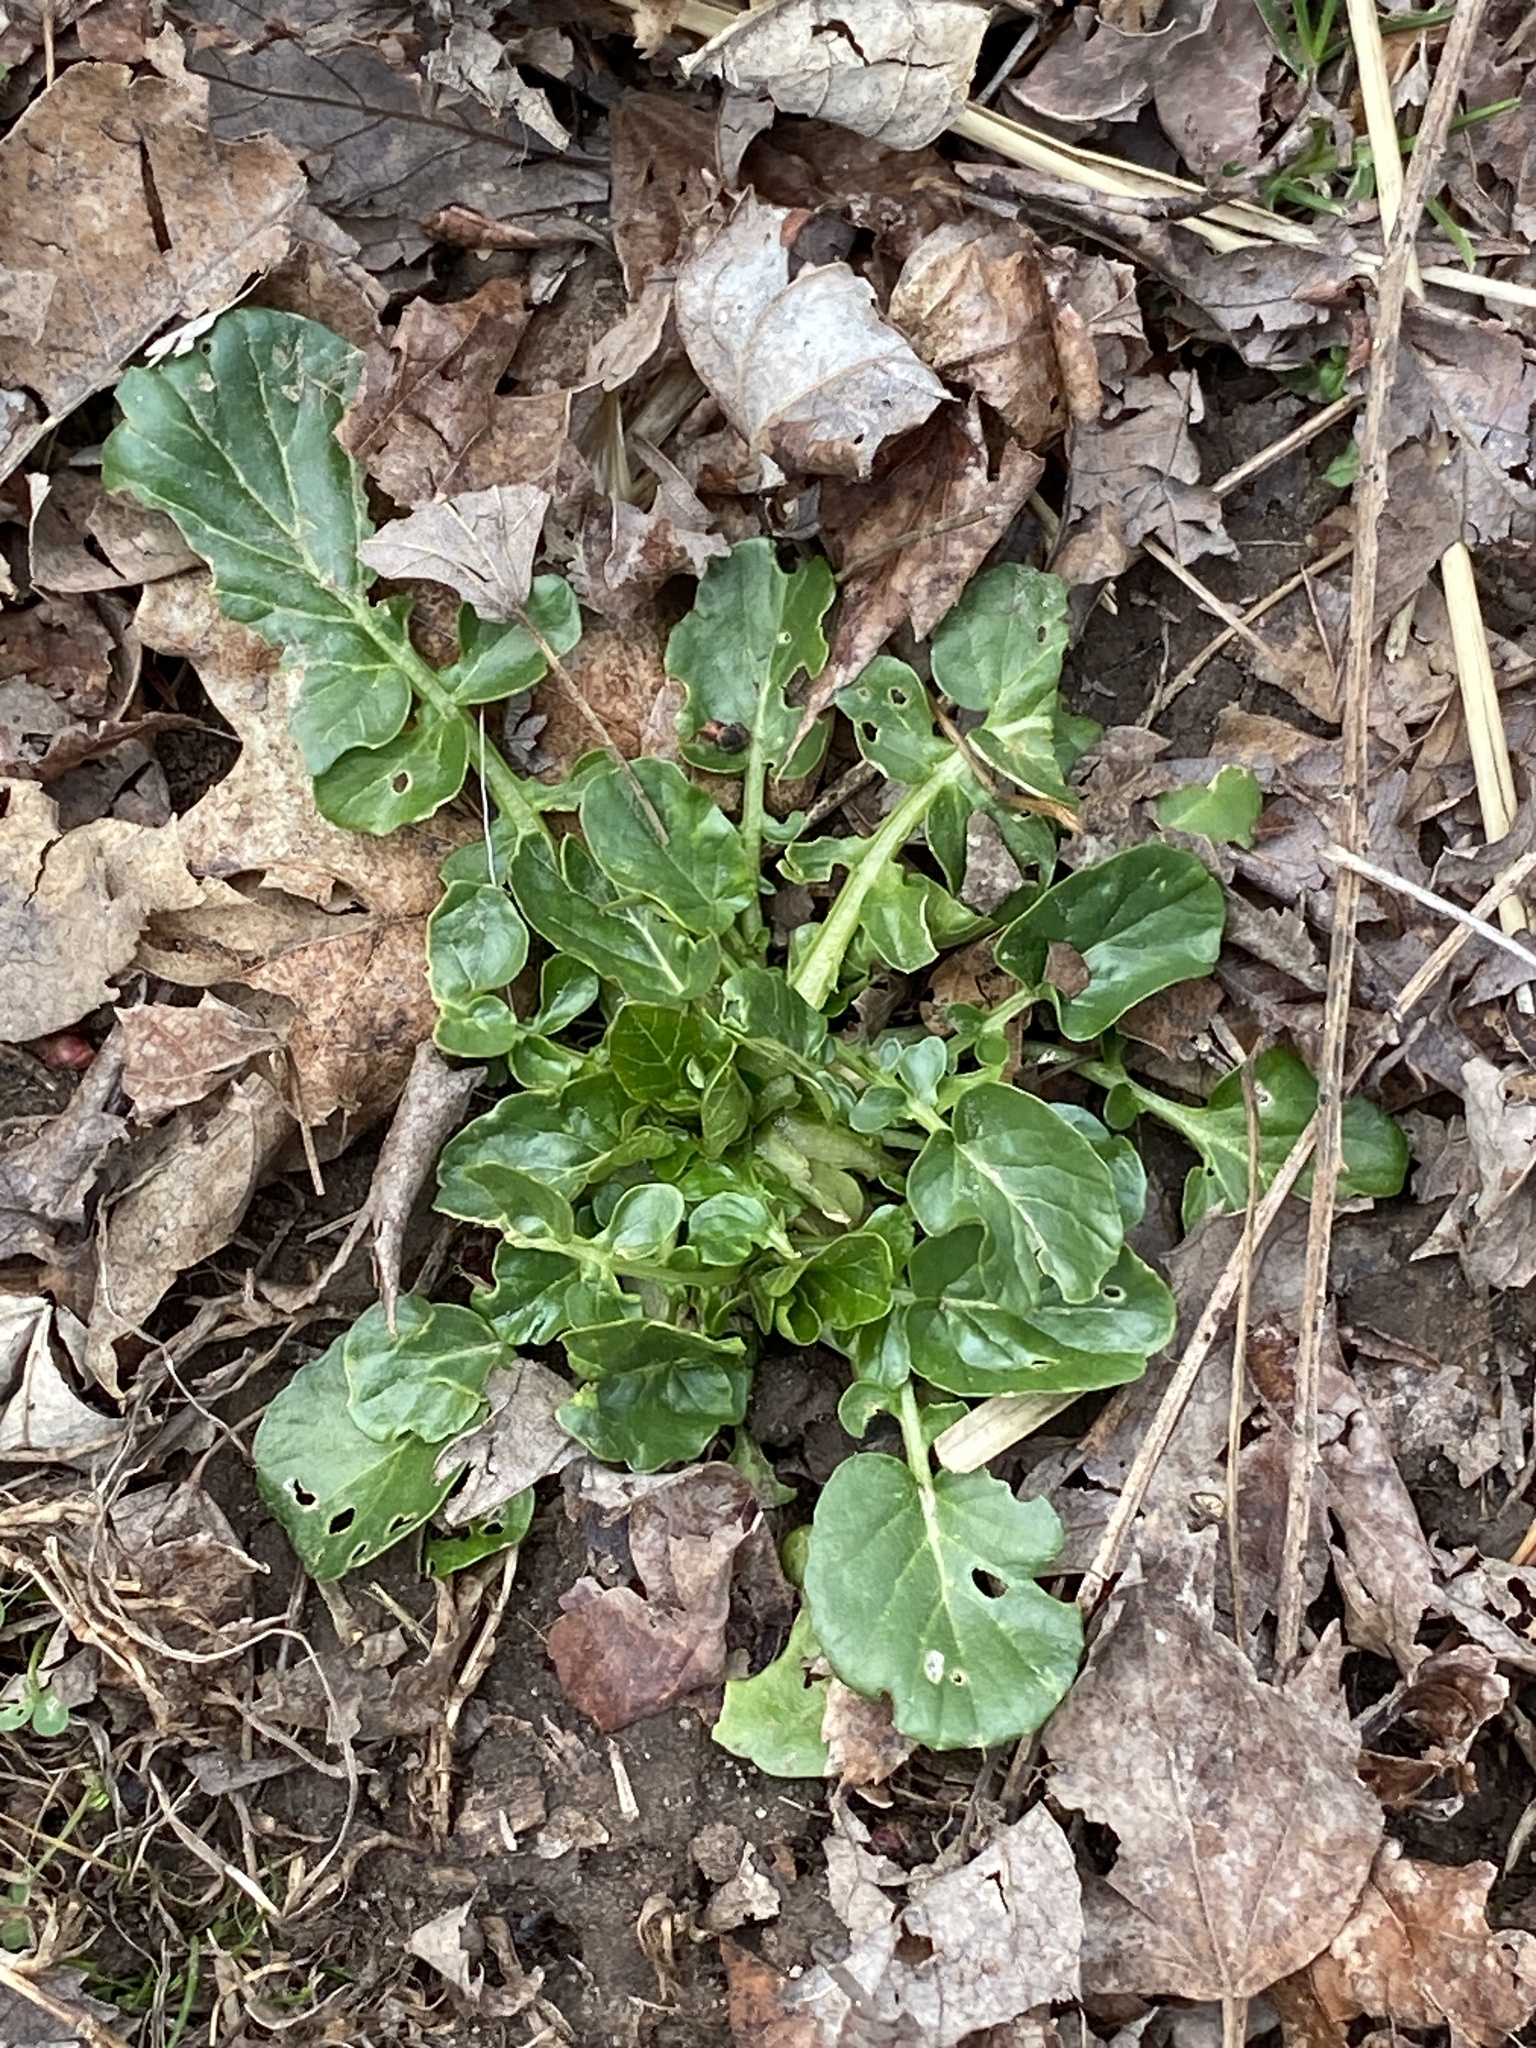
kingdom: Plantae
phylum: Tracheophyta
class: Magnoliopsida
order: Brassicales
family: Brassicaceae
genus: Barbarea
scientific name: Barbarea vulgaris
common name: Cressy-greens
